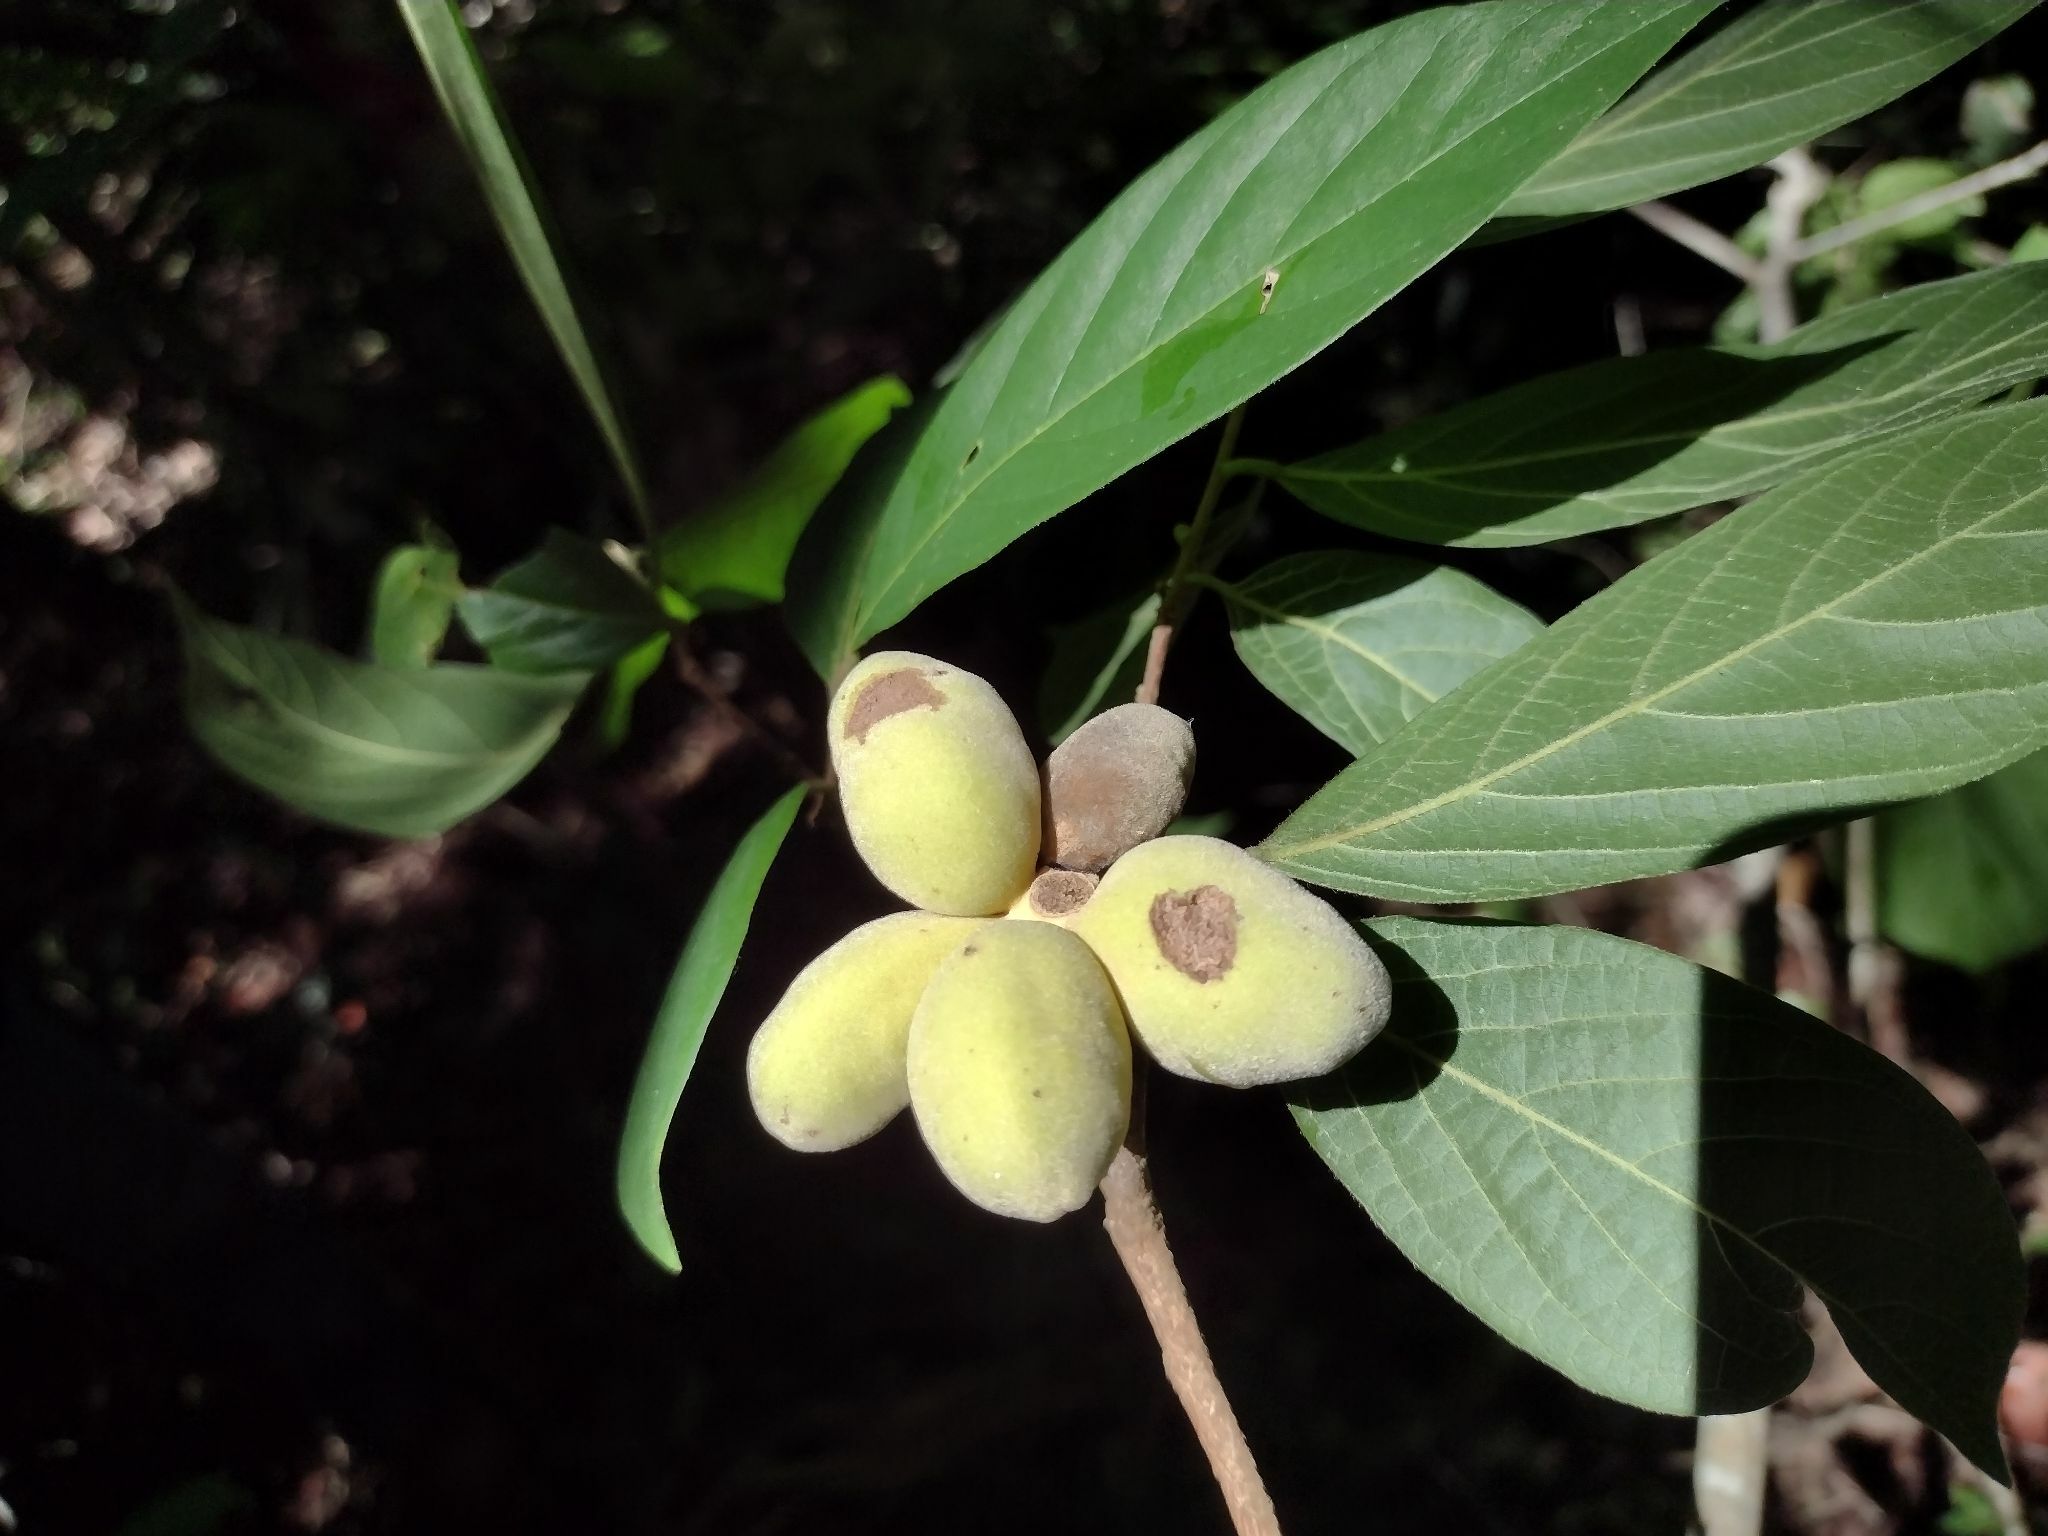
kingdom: Plantae
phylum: Tracheophyta
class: Magnoliopsida
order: Magnoliales
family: Annonaceae
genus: Sapranthus
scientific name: Sapranthus campechianus
